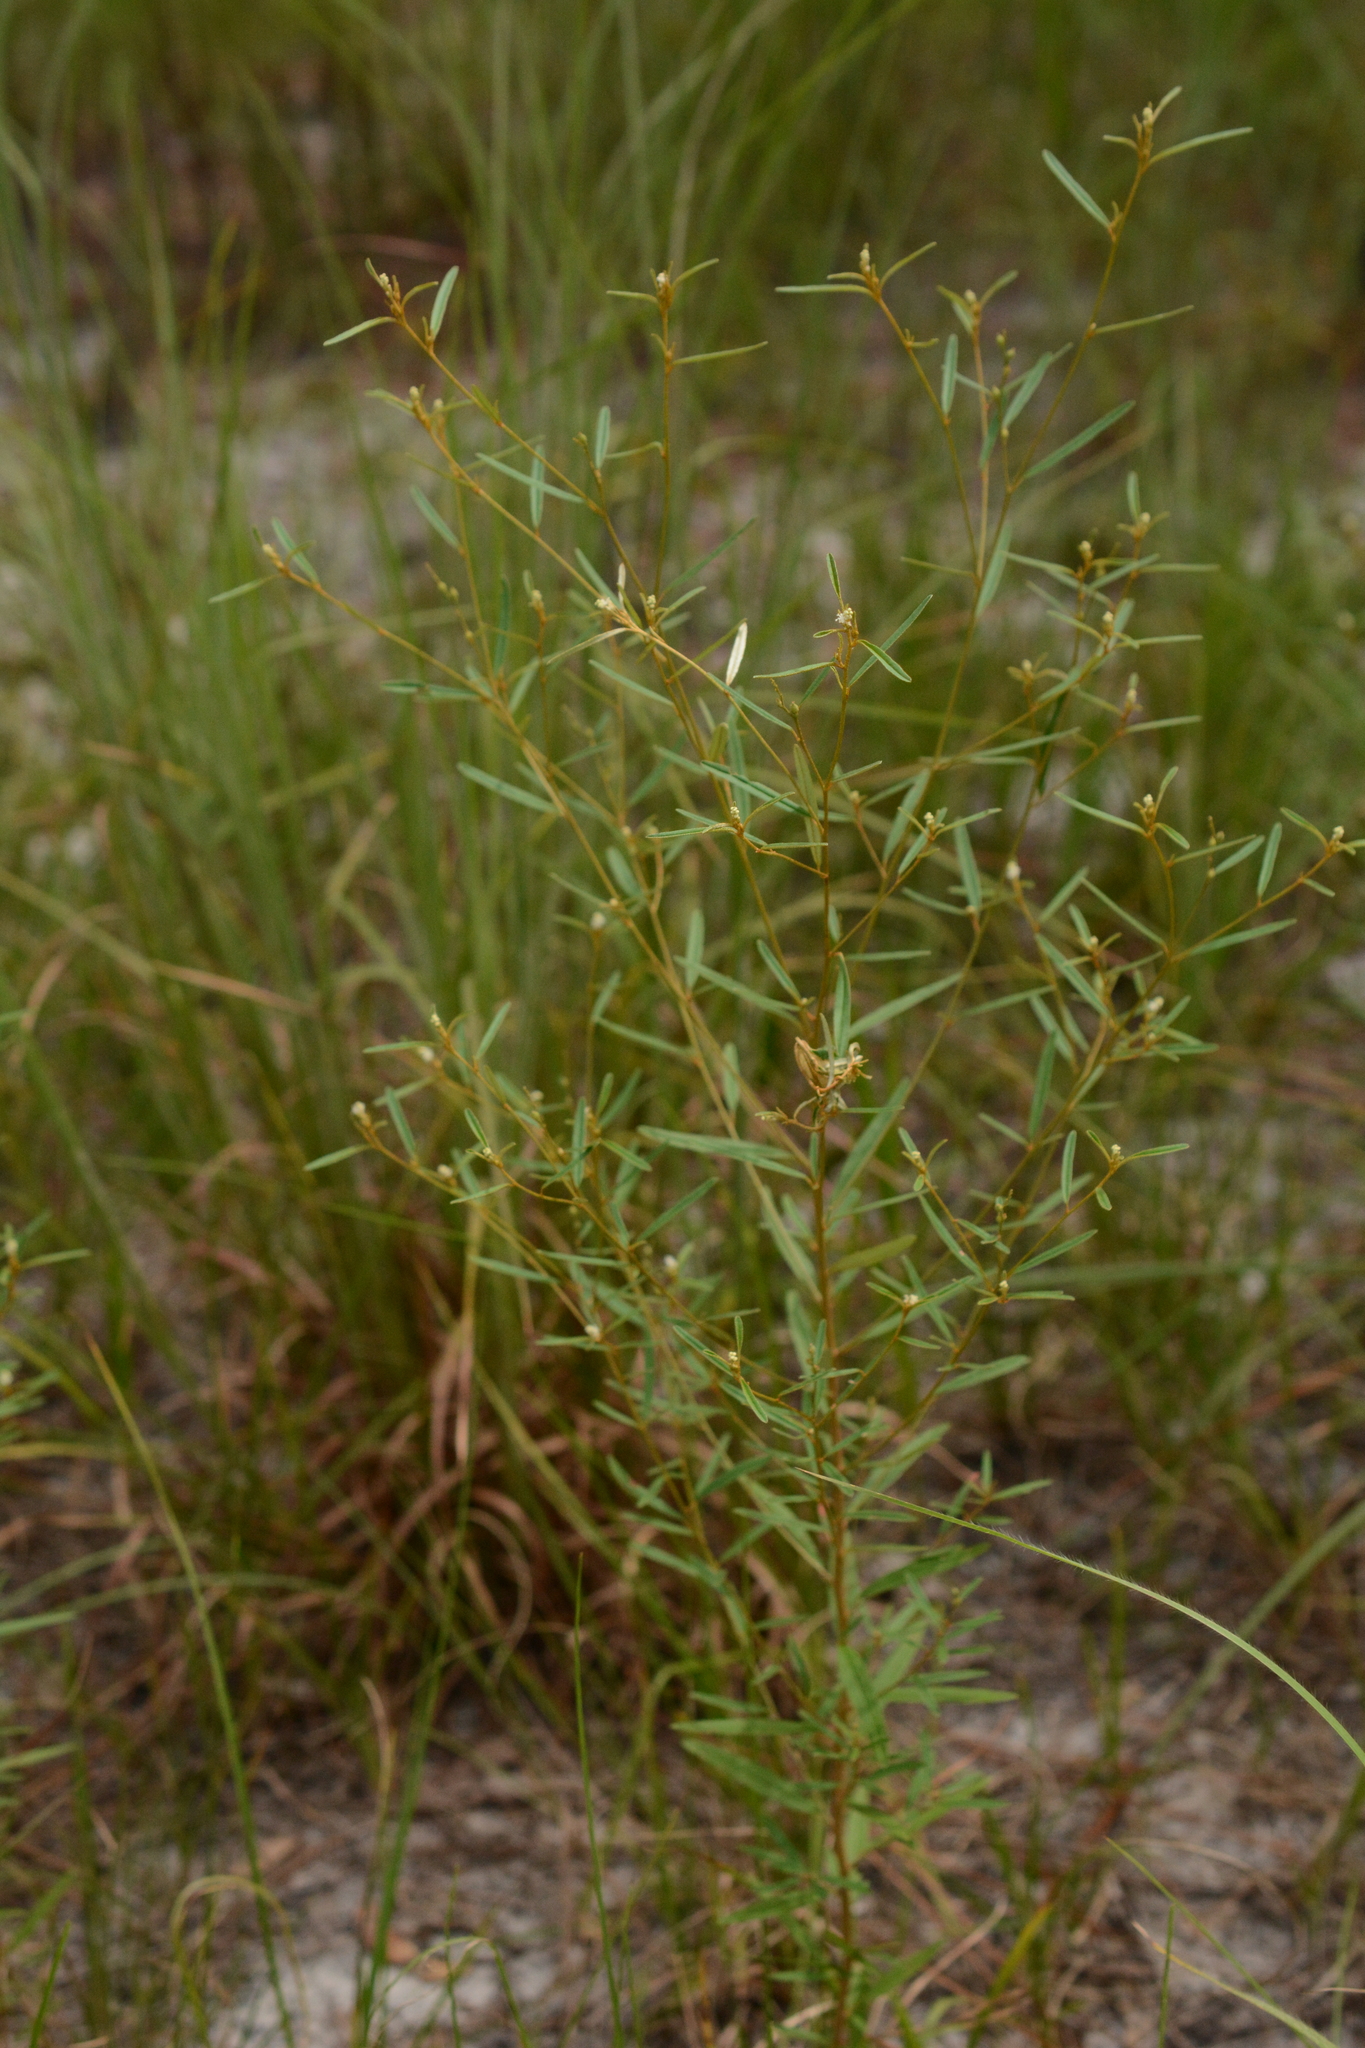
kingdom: Plantae
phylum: Tracheophyta
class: Magnoliopsida
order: Malpighiales
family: Euphorbiaceae
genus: Croton
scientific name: Croton michauxii
